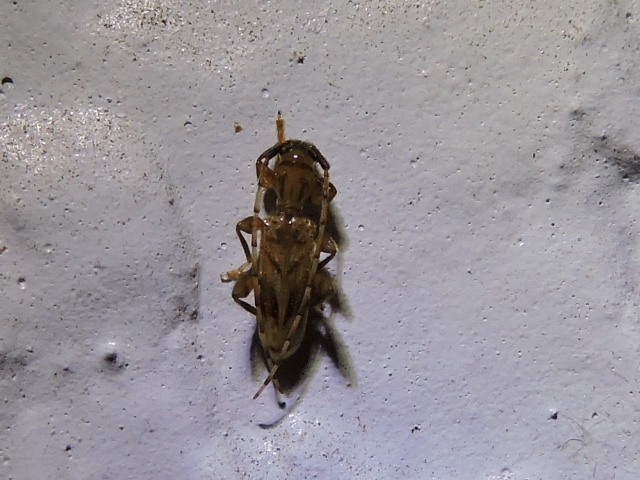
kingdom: Animalia
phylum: Arthropoda
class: Insecta
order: Coleoptera
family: Cerambycidae
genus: Obrium
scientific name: Obrium maculatum
